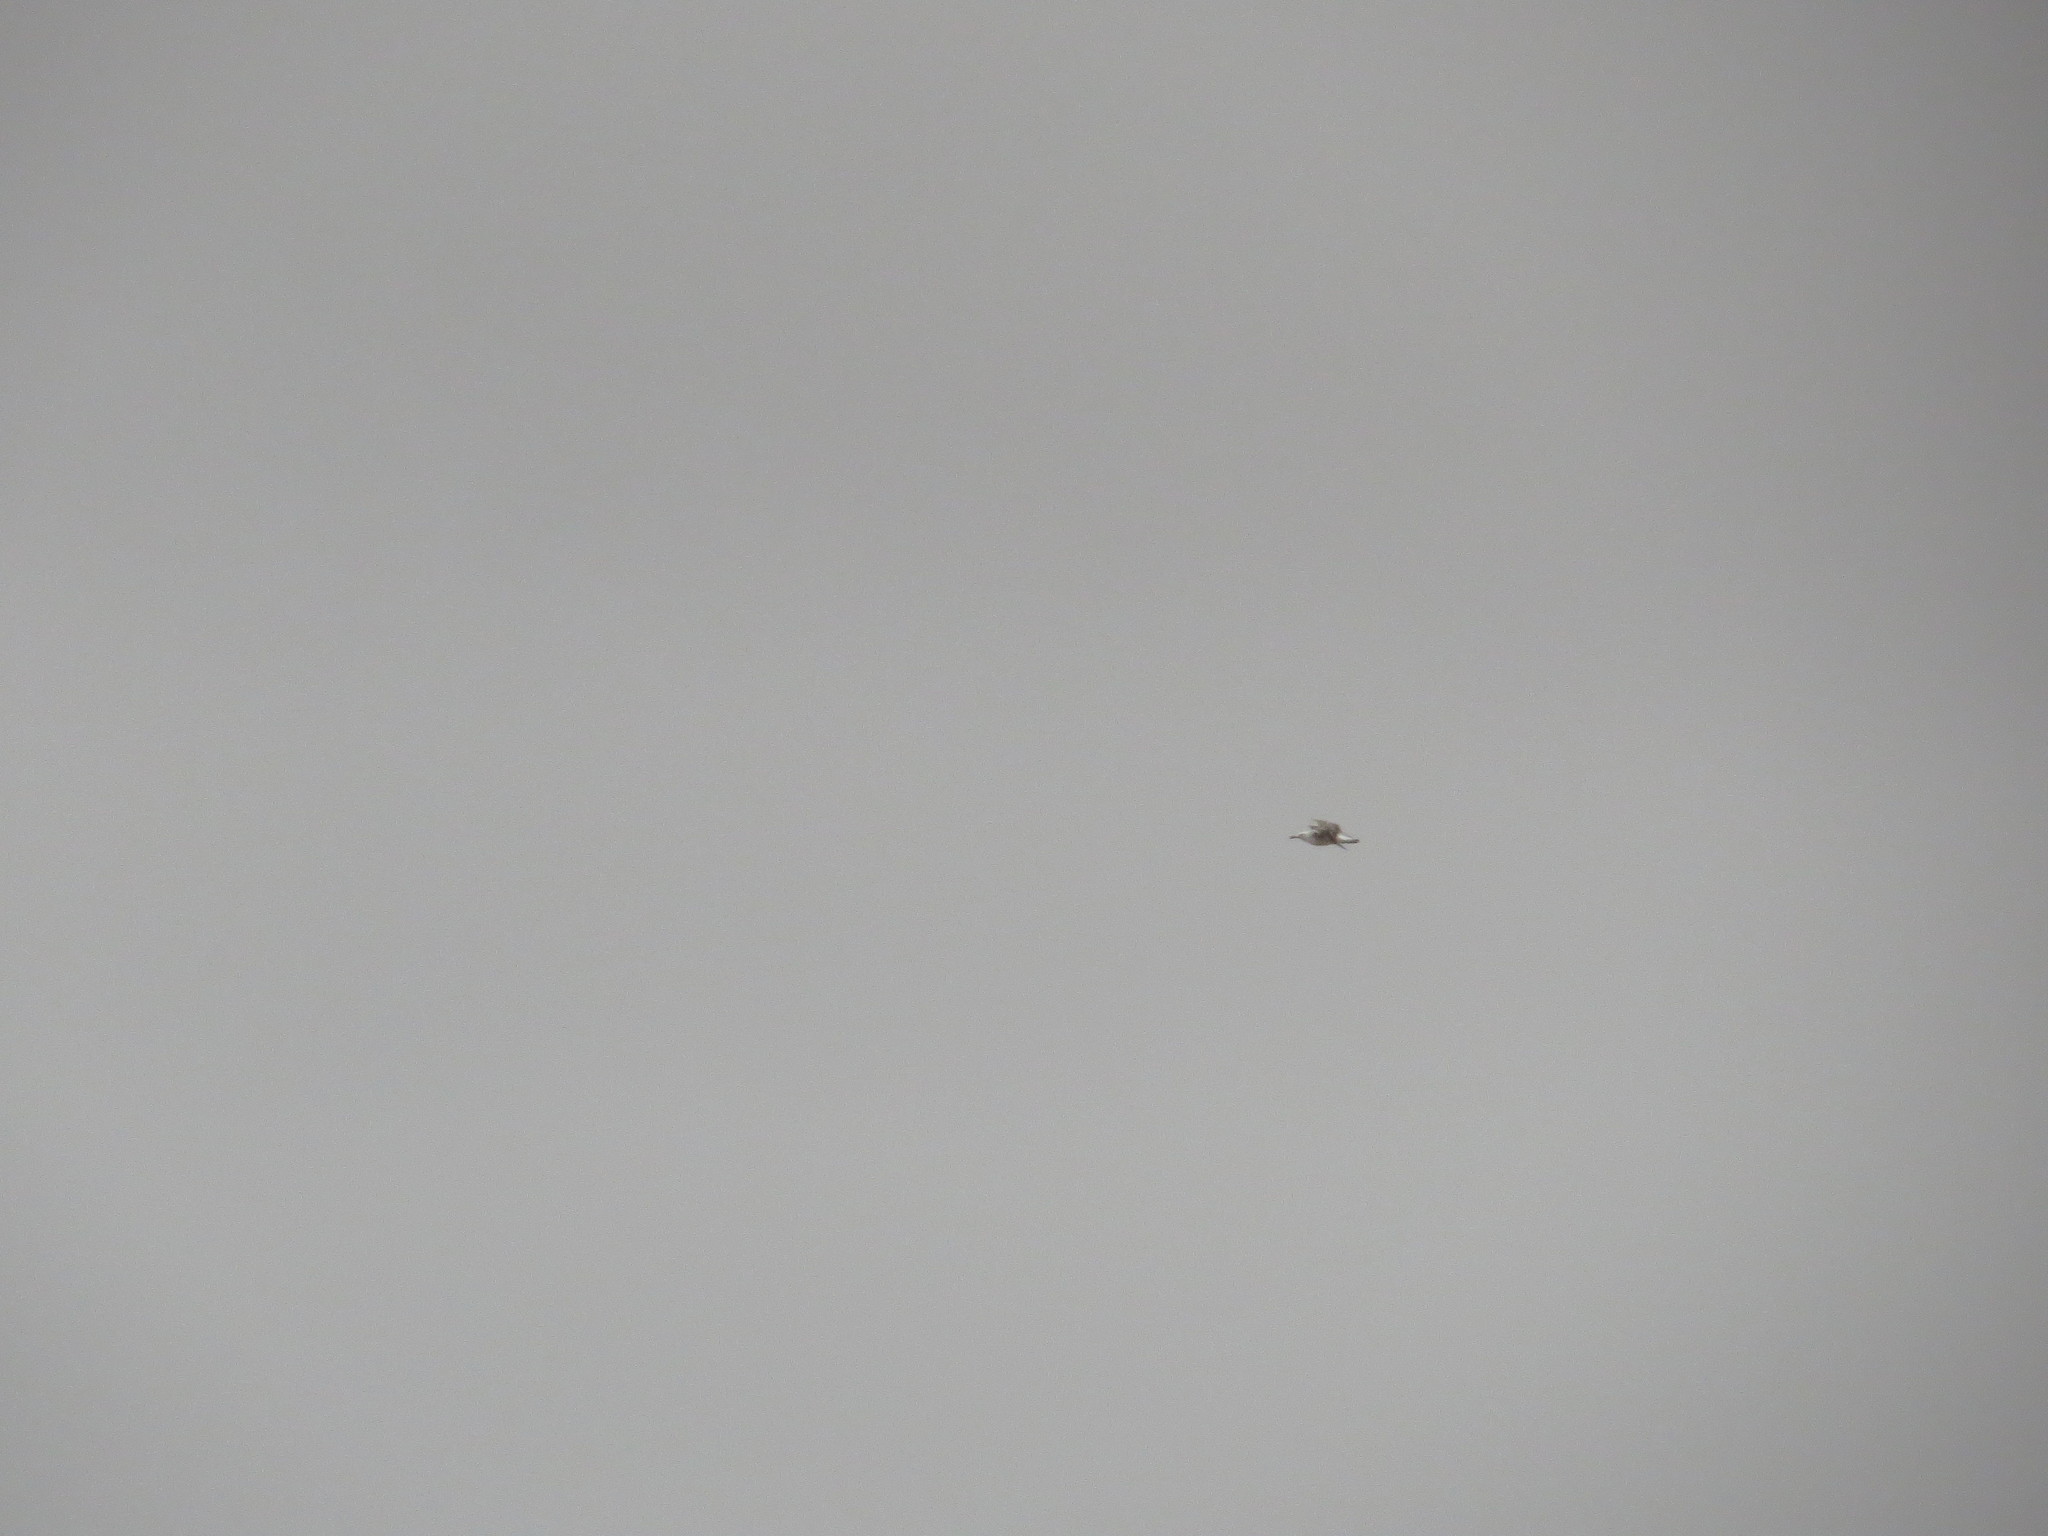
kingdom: Animalia
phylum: Chordata
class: Aves
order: Charadriiformes
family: Laridae
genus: Larus
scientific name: Larus dominicanus
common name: Kelp gull
